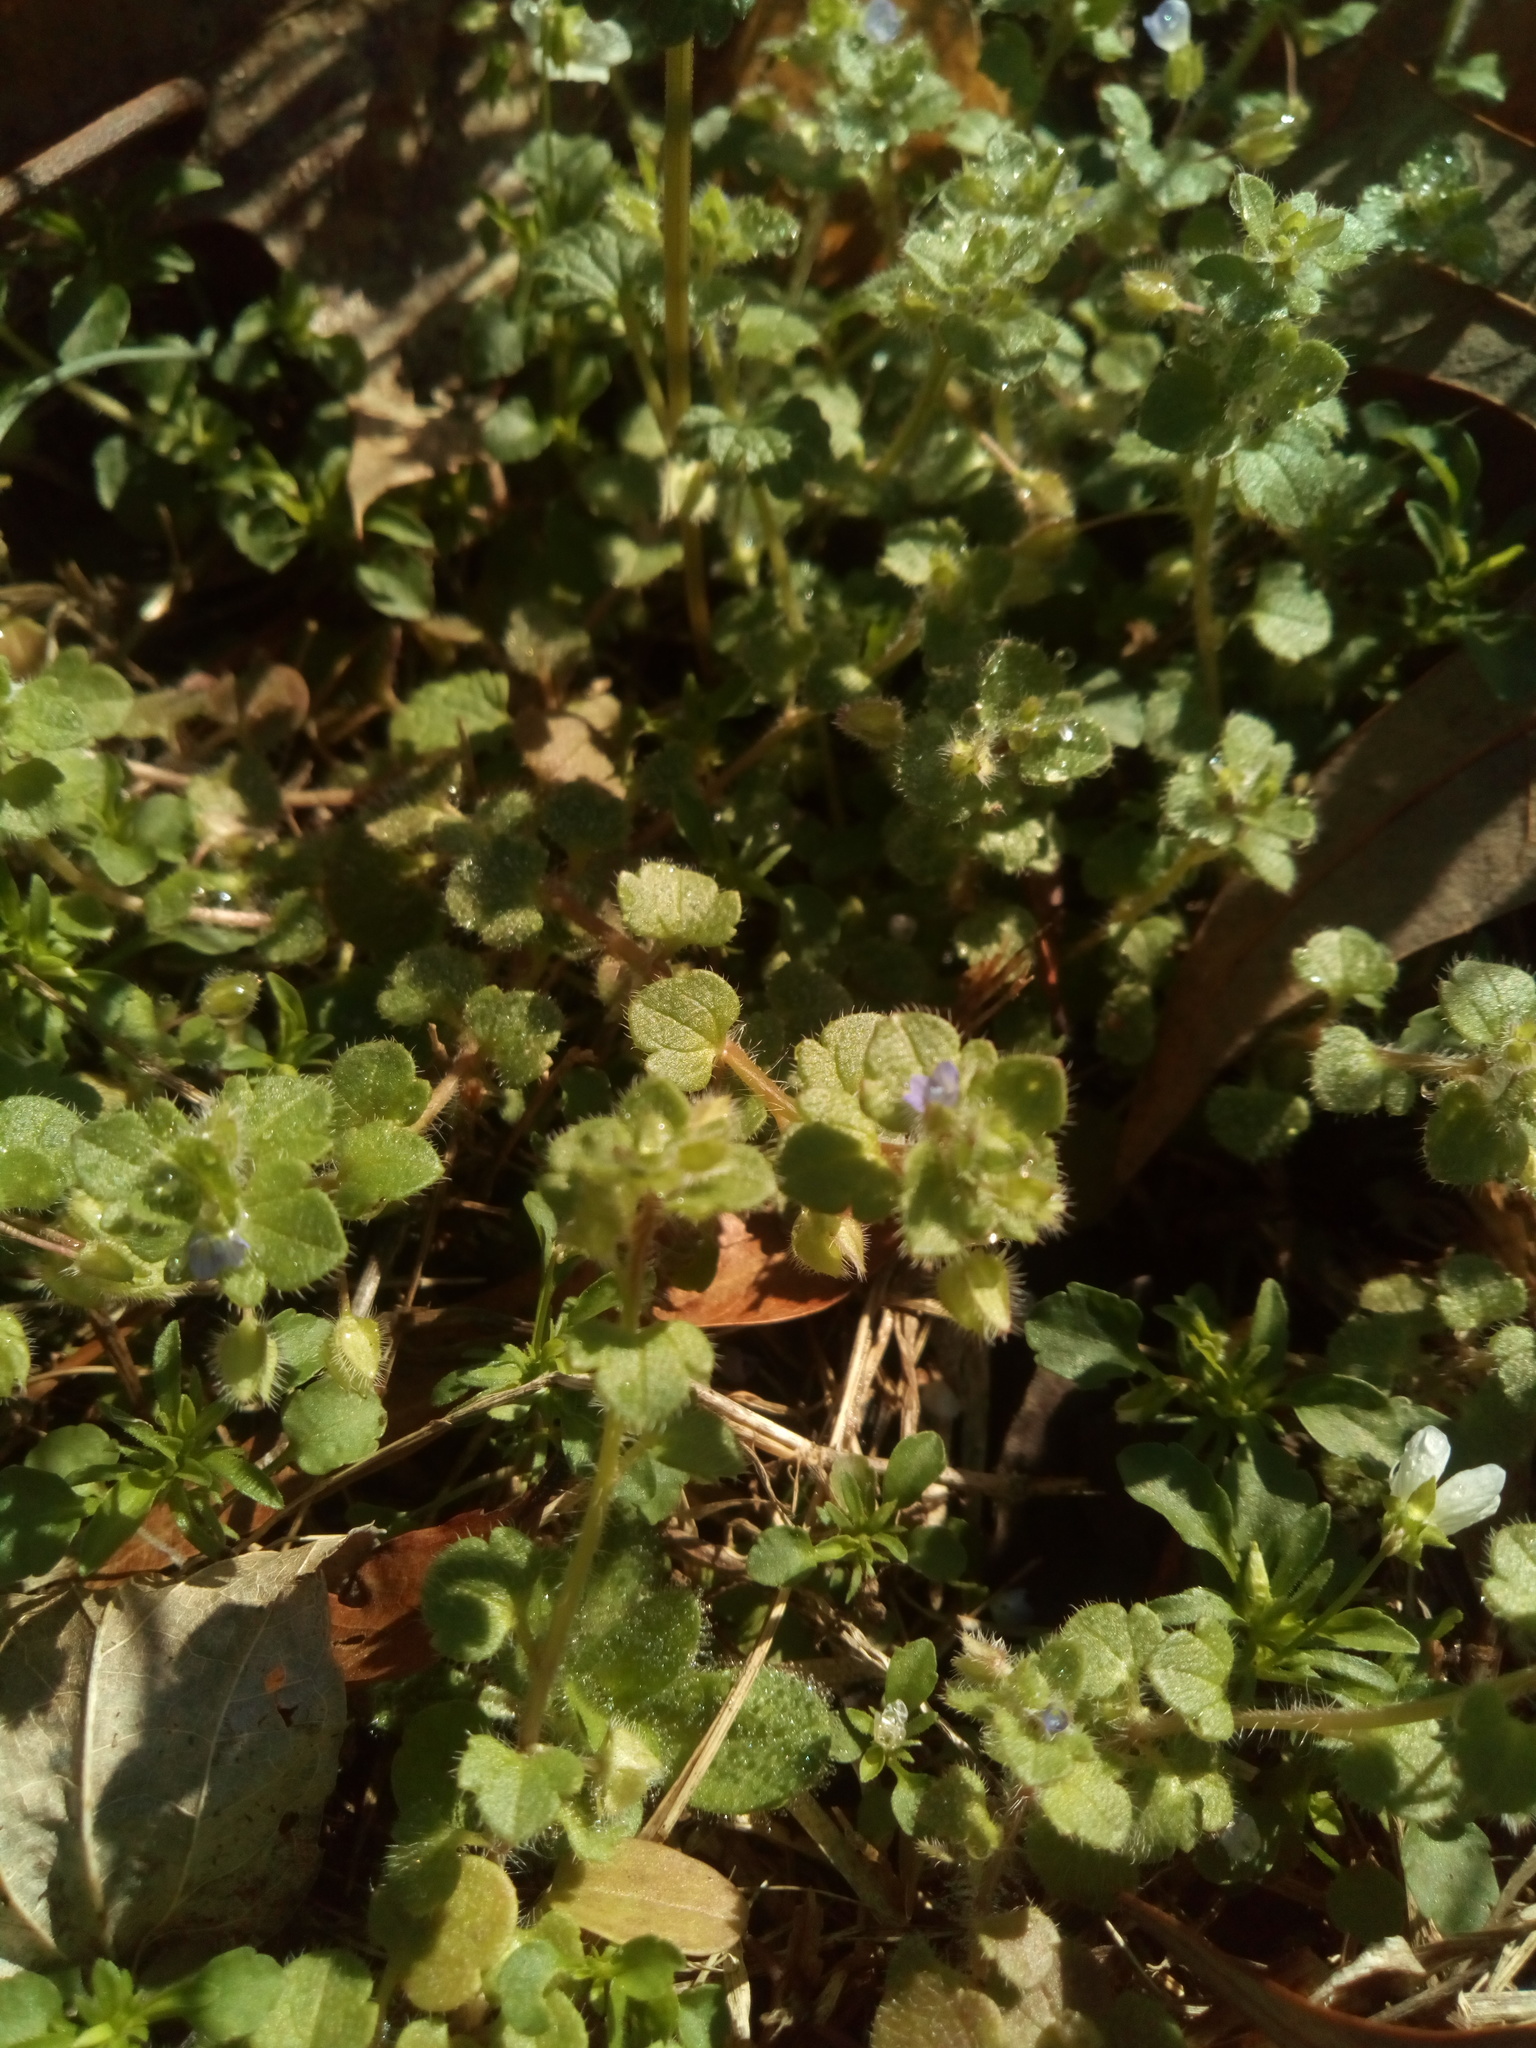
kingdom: Plantae
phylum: Tracheophyta
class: Magnoliopsida
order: Lamiales
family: Plantaginaceae
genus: Veronica
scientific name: Veronica hederifolia
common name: Ivy-leaved speedwell
